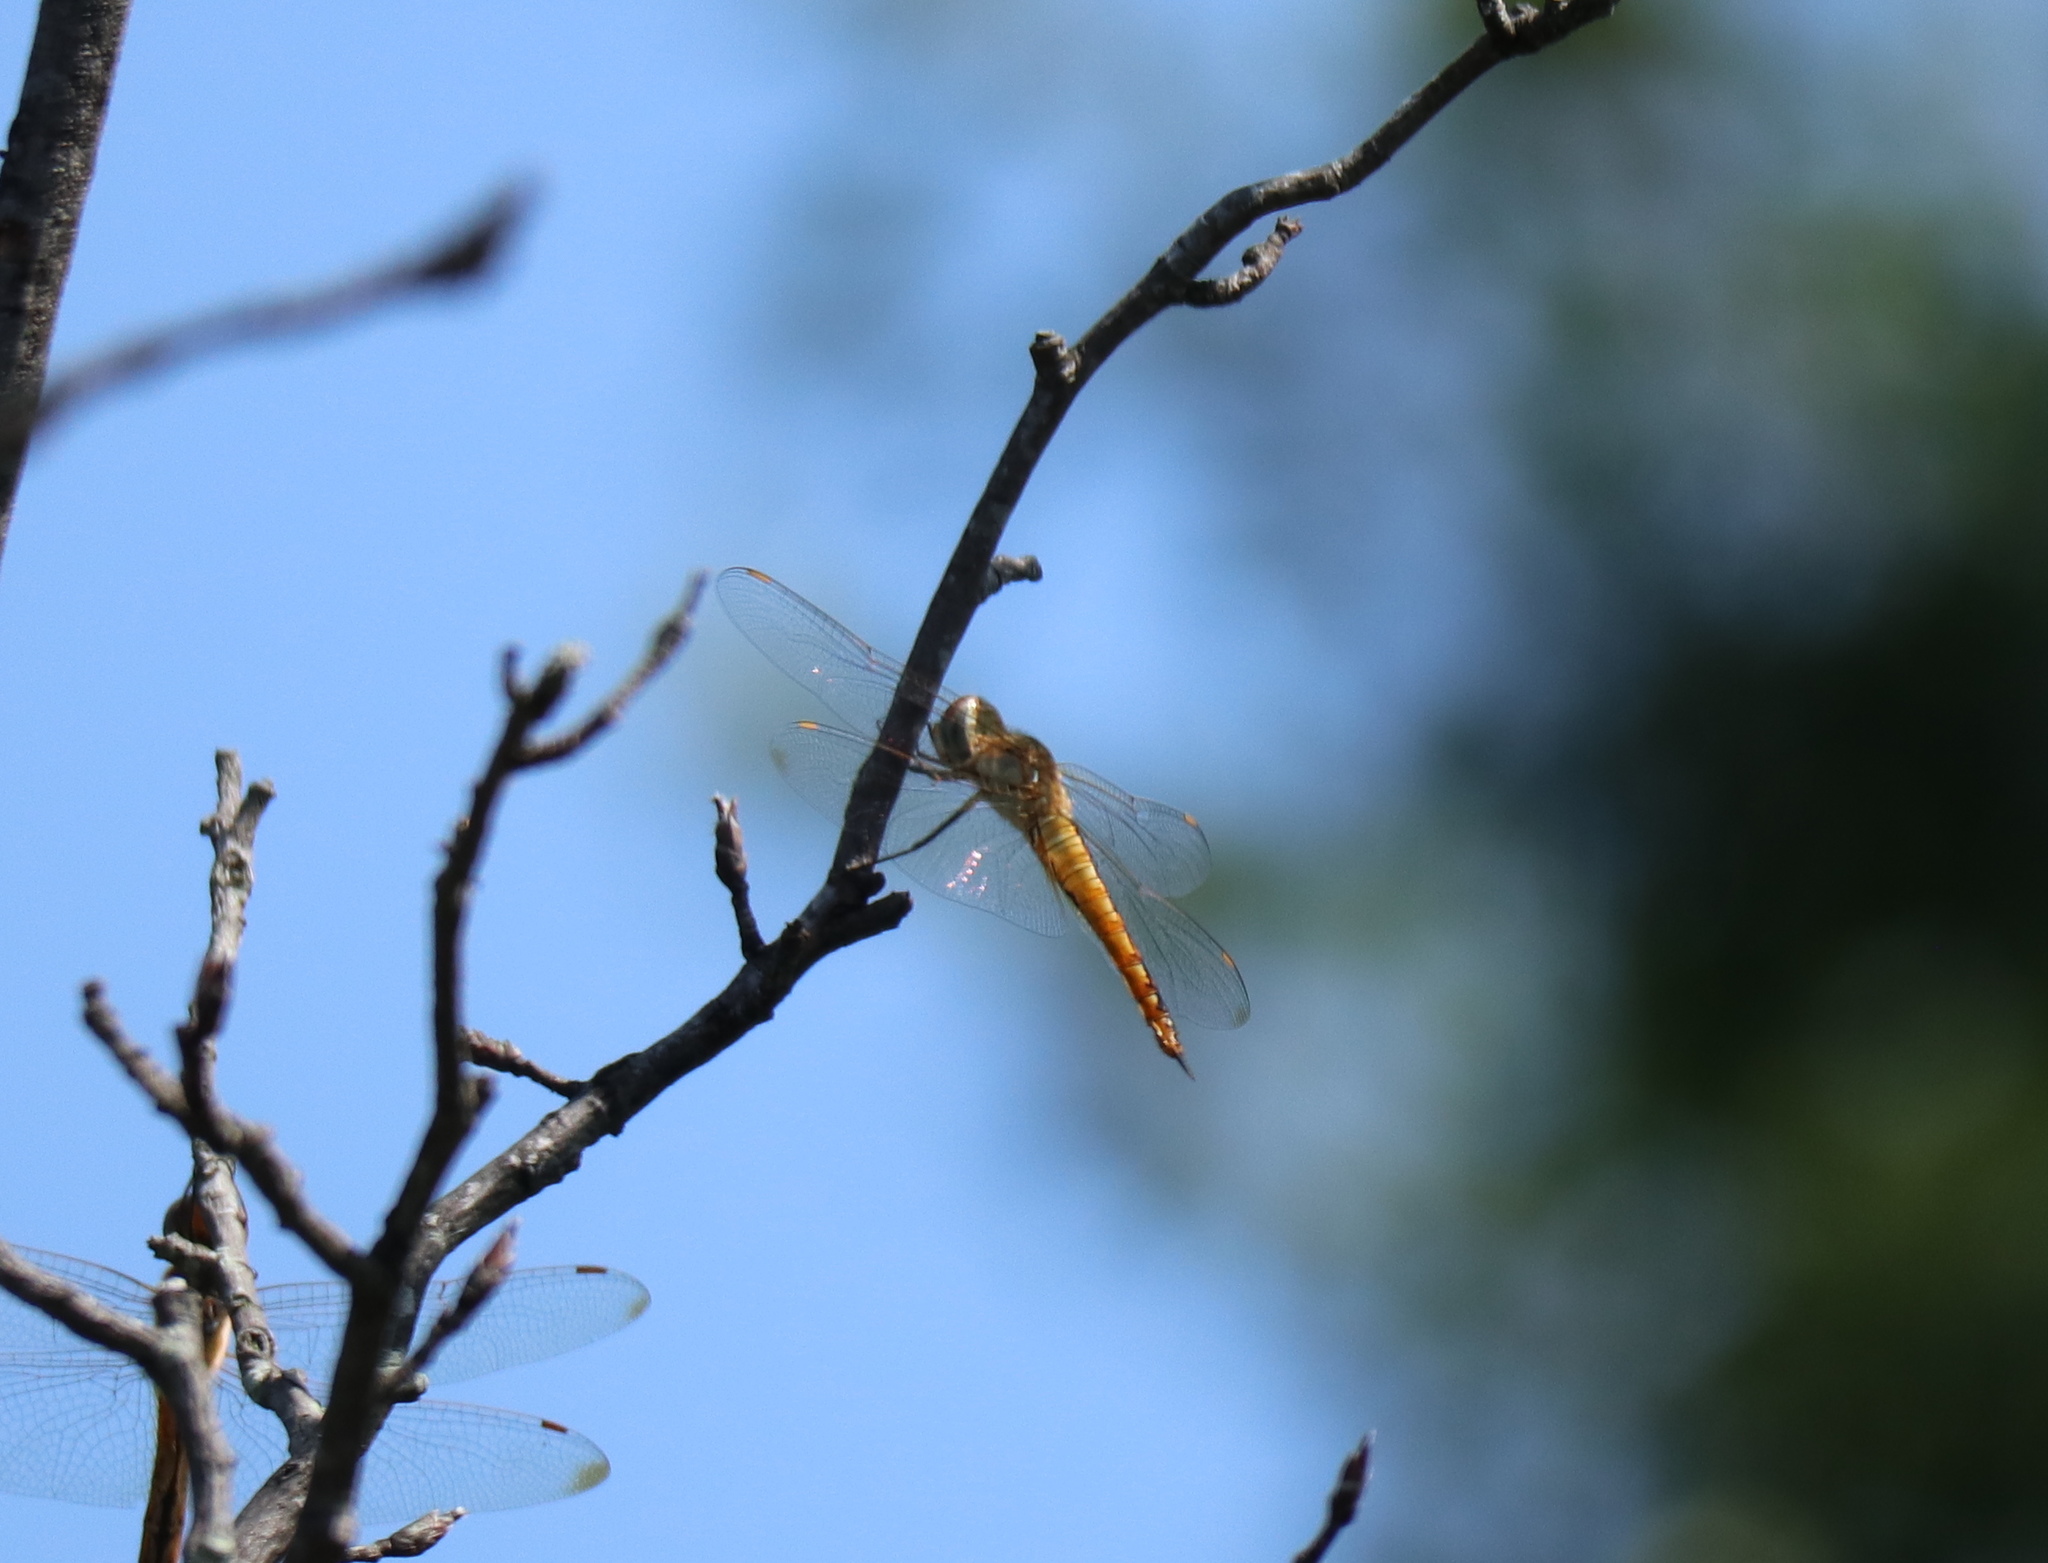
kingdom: Animalia
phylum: Arthropoda
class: Insecta
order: Odonata
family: Libellulidae
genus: Pantala
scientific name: Pantala flavescens
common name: Wandering glider
